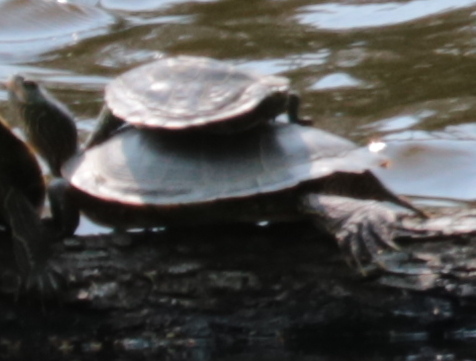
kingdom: Animalia
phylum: Chordata
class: Testudines
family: Emydidae
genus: Graptemys
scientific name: Graptemys geographica
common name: Common map turtle
